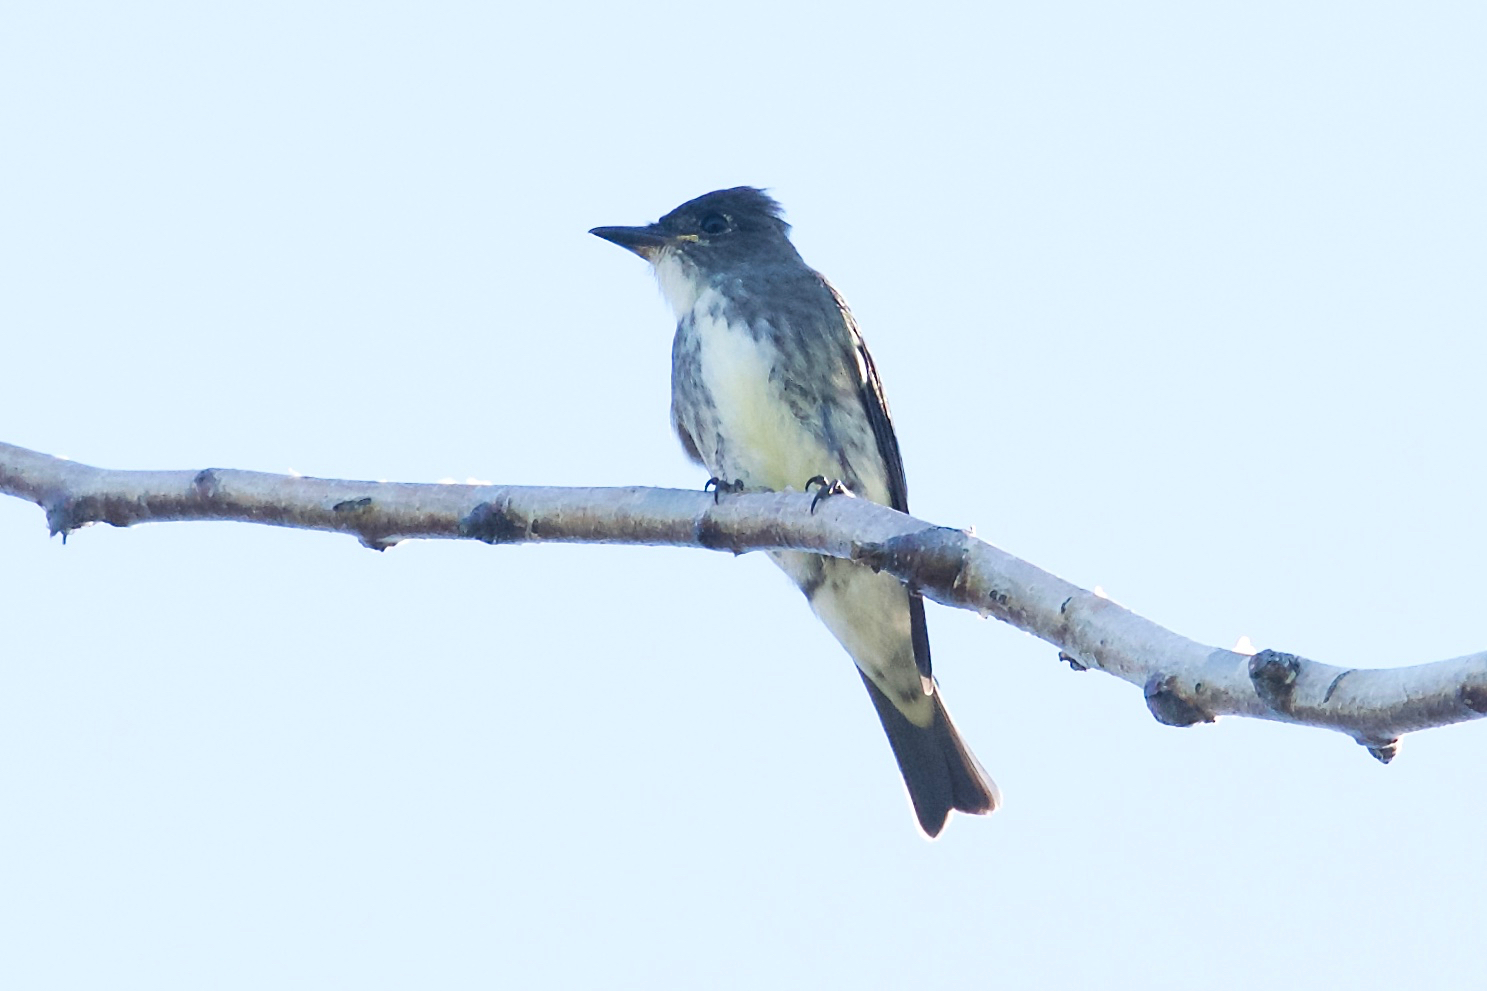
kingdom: Animalia
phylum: Chordata
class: Aves
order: Passeriformes
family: Tyrannidae
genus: Contopus
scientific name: Contopus cooperi
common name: Olive-sided flycatcher
